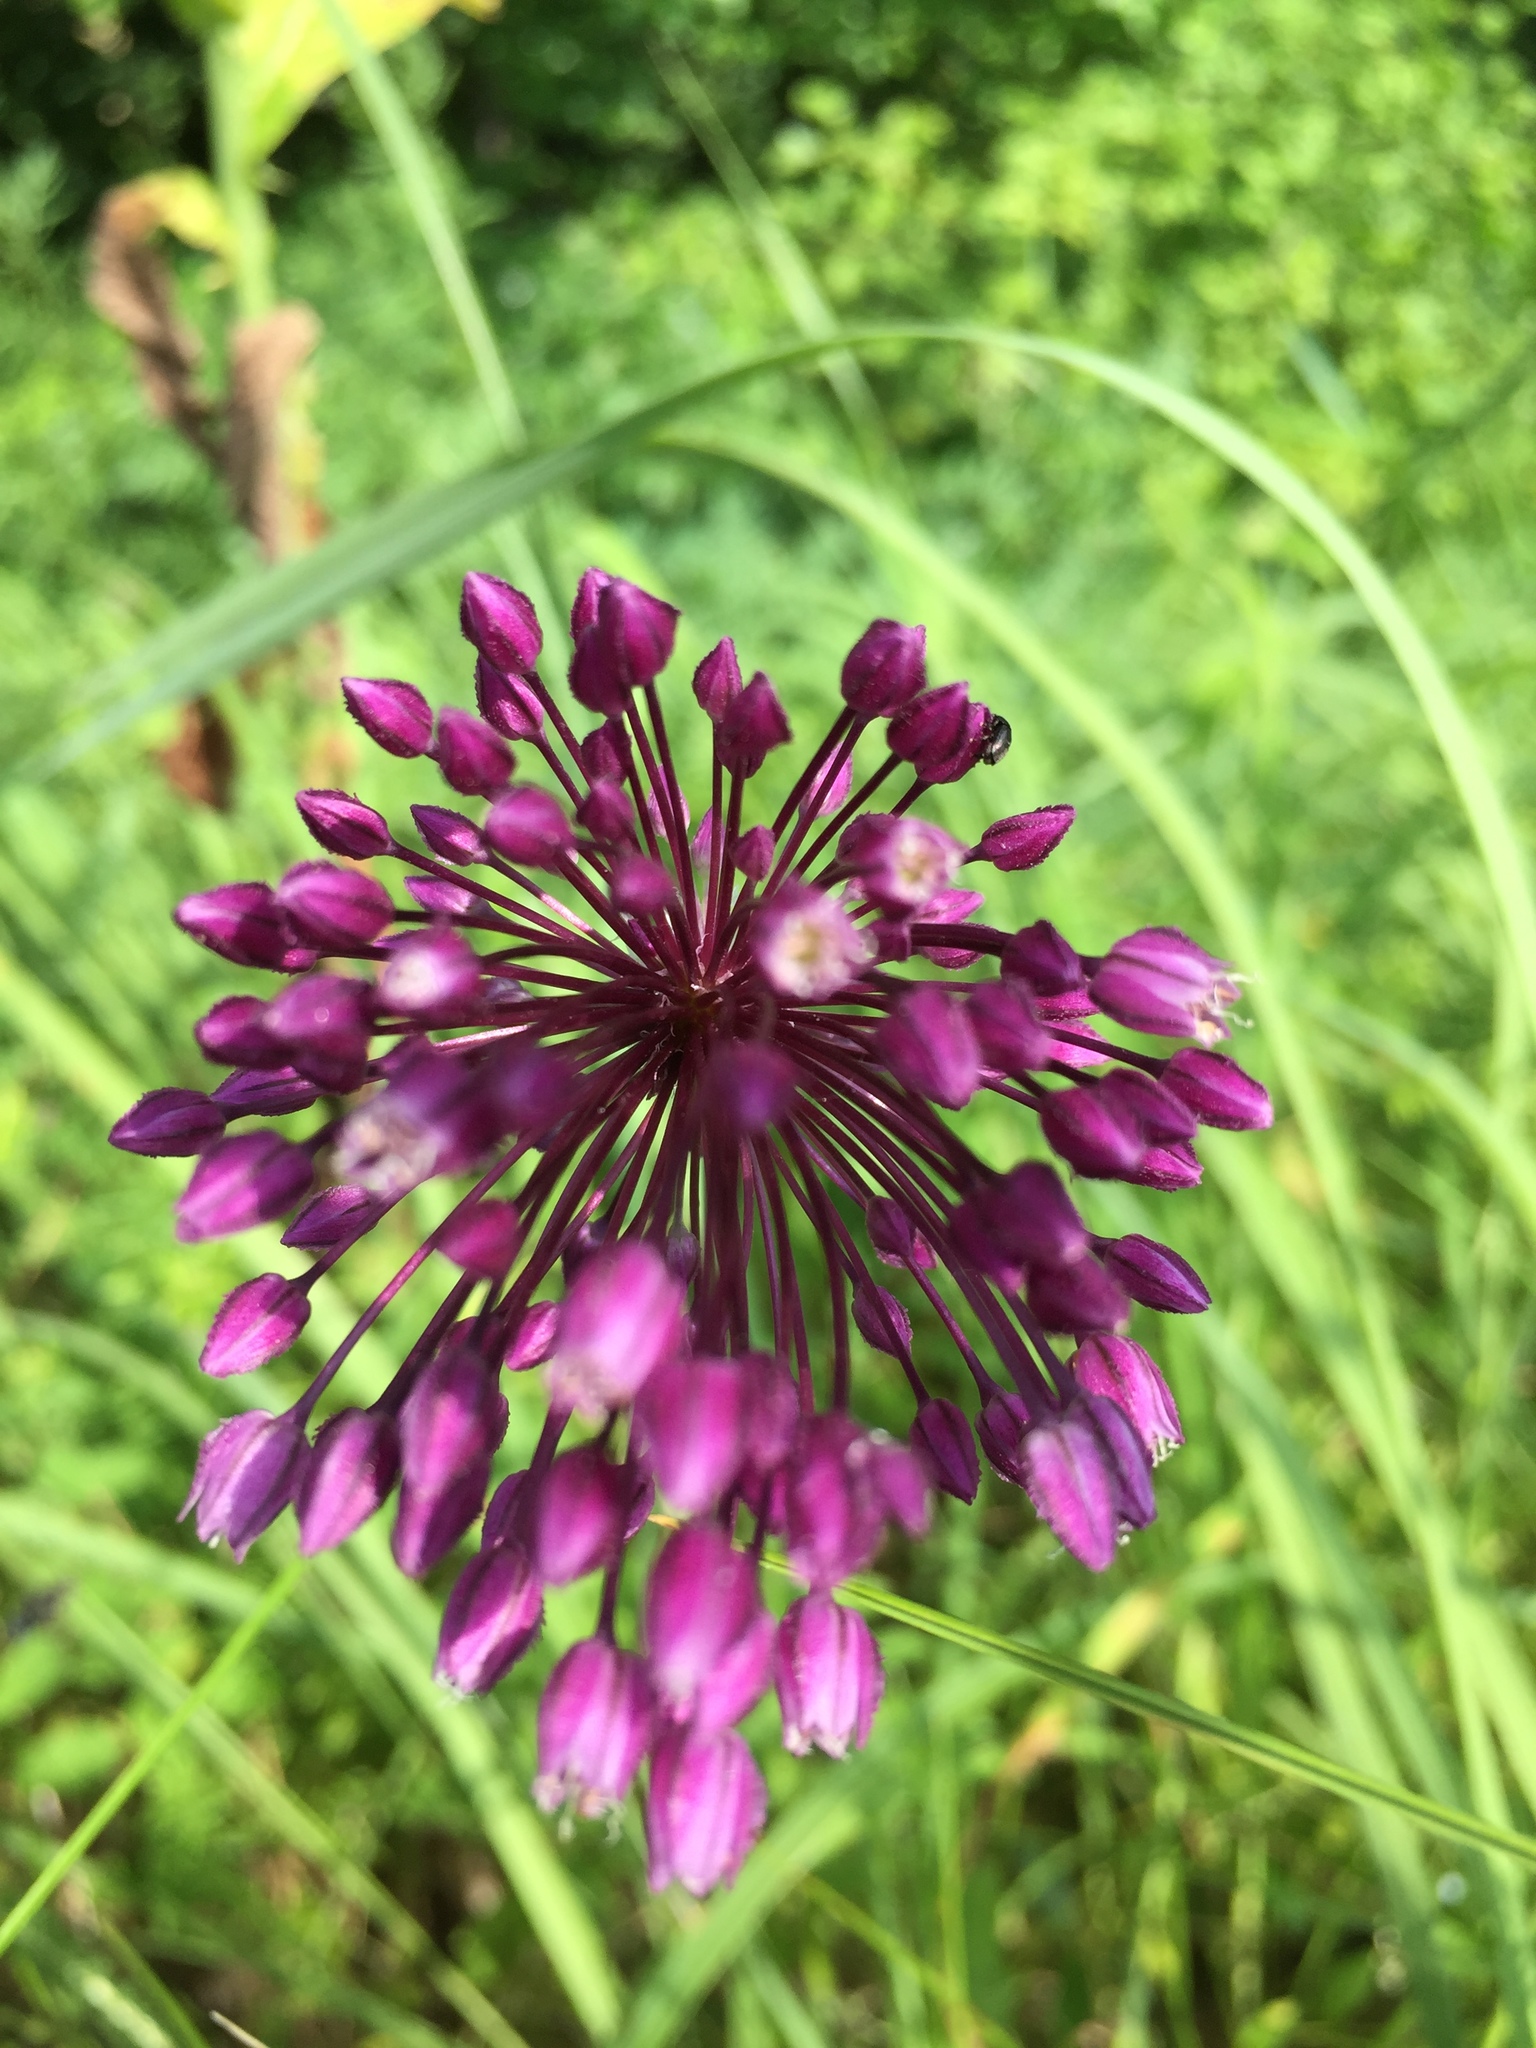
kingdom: Plantae
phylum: Tracheophyta
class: Liliopsida
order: Asparagales
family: Amaryllidaceae
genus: Allium
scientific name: Allium rotundum
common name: Sand leek
